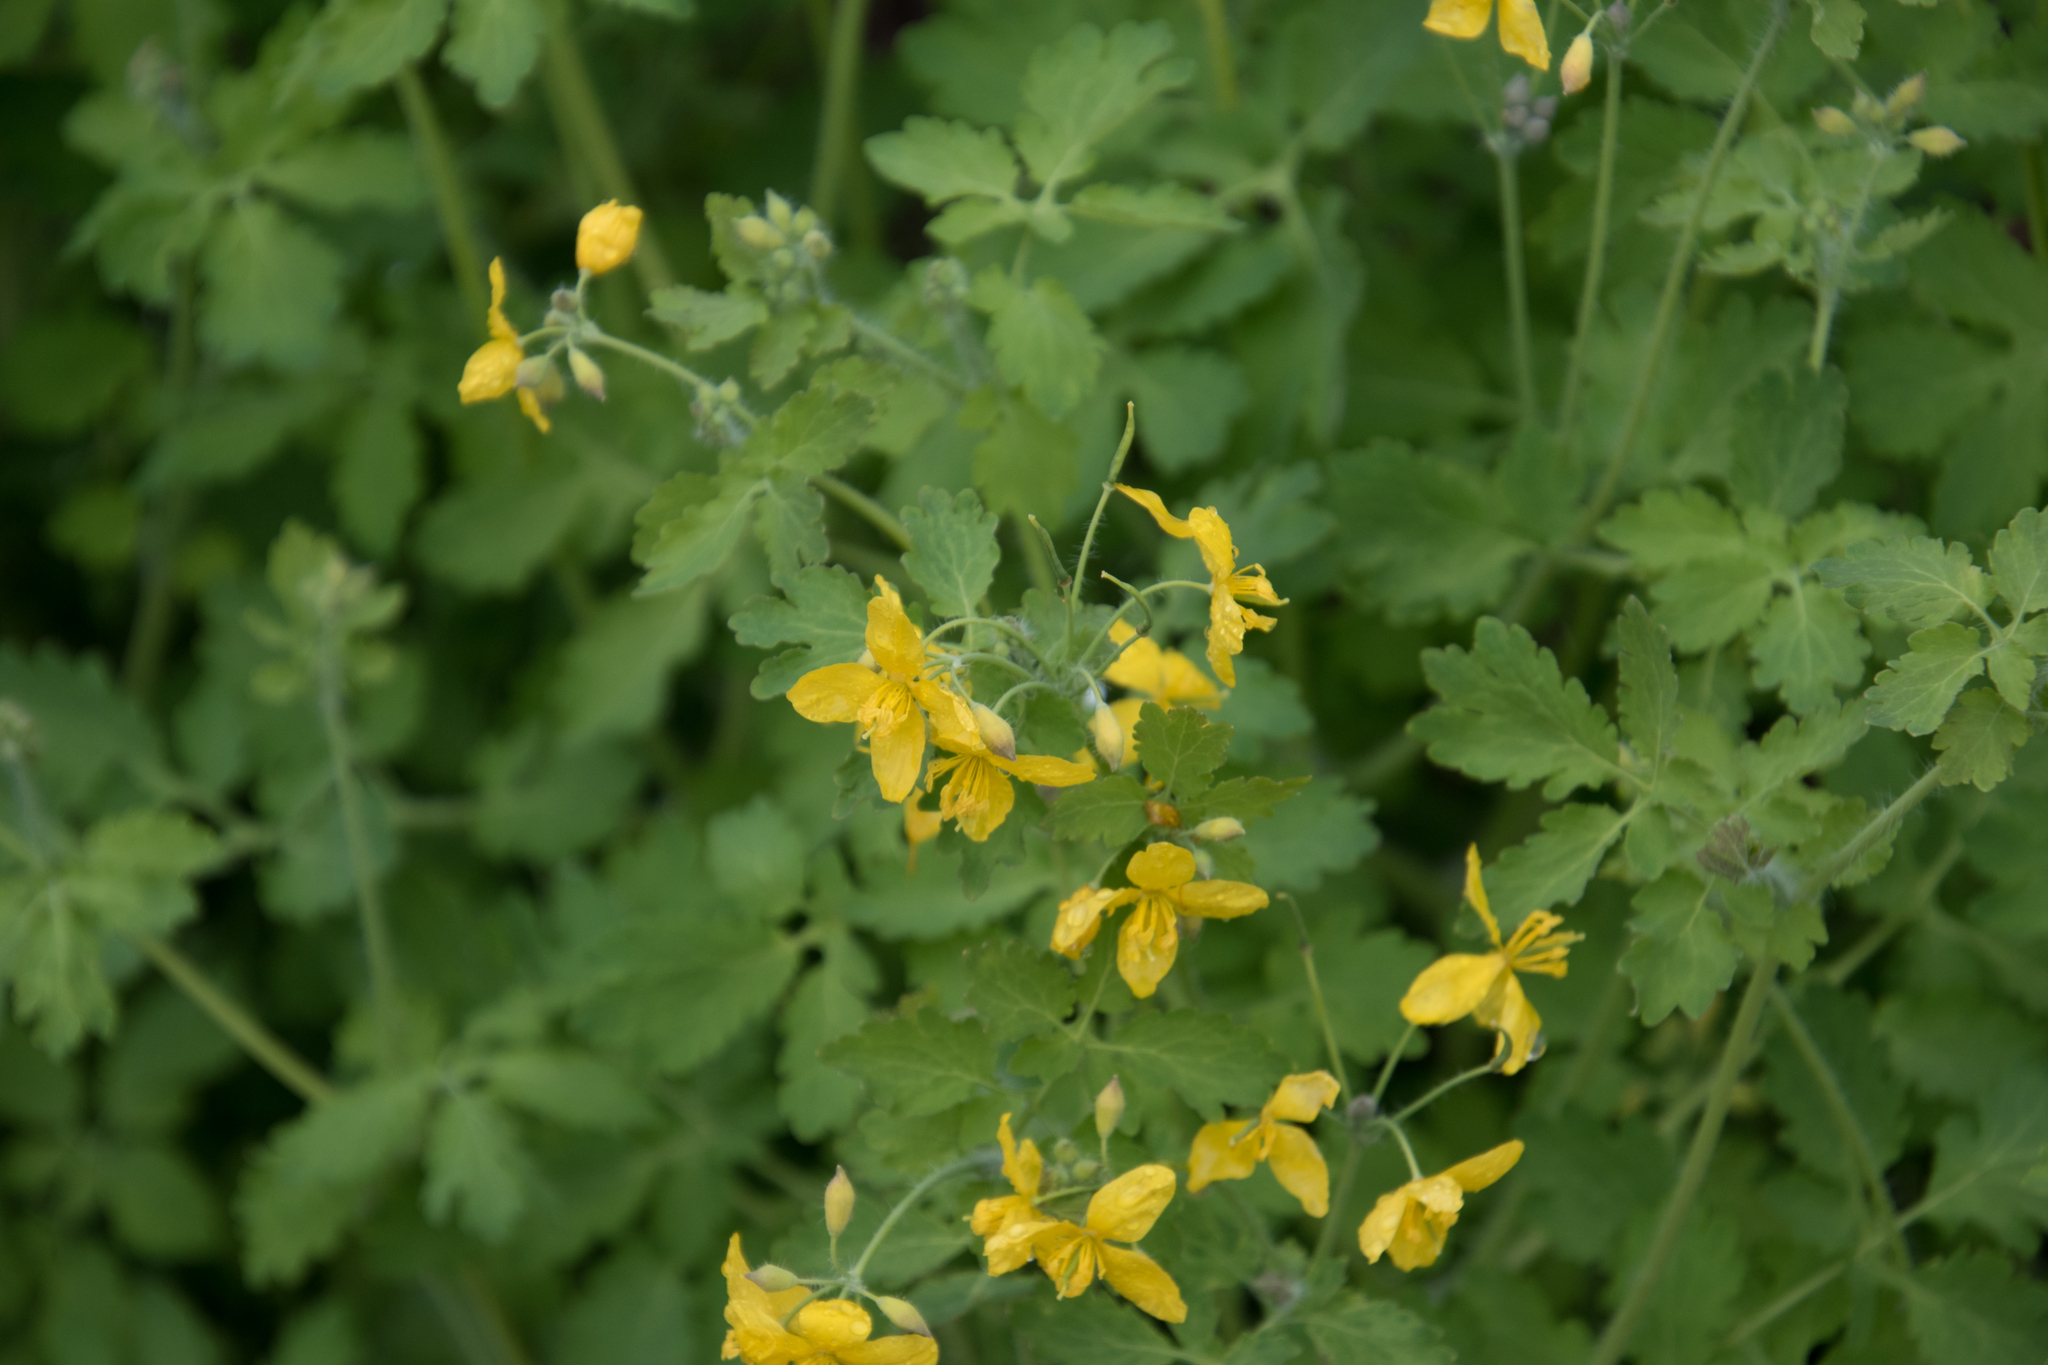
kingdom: Plantae
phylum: Tracheophyta
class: Magnoliopsida
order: Ranunculales
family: Papaveraceae
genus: Chelidonium
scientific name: Chelidonium majus
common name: Greater celandine
